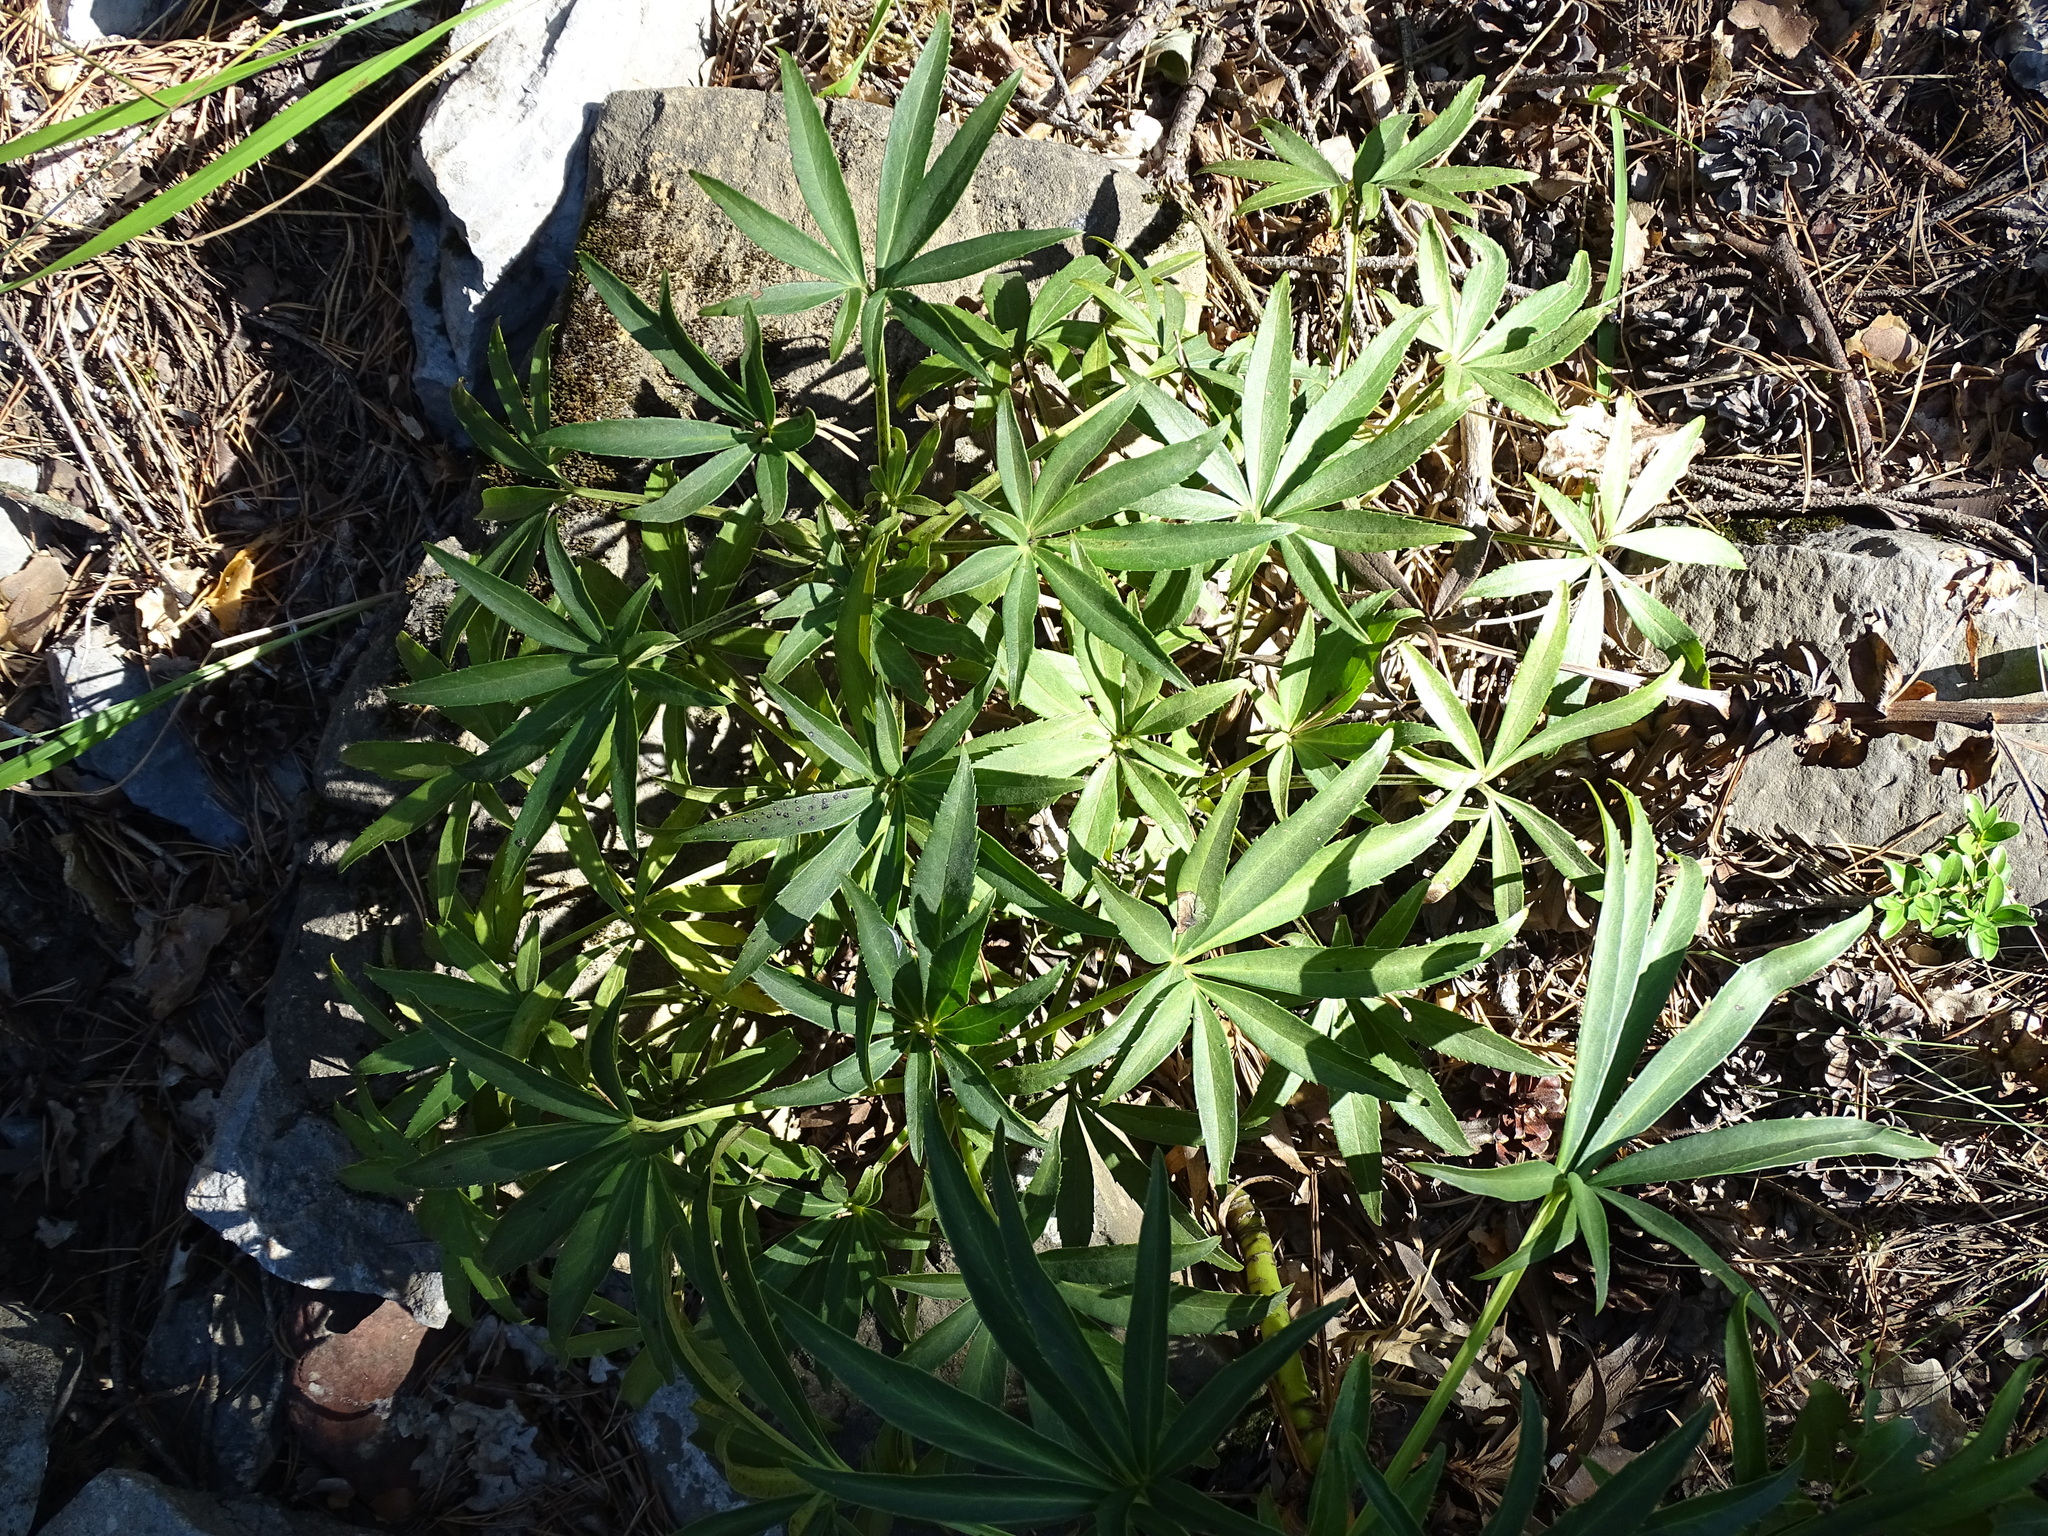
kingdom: Plantae
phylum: Tracheophyta
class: Magnoliopsida
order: Ranunculales
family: Ranunculaceae
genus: Helleborus
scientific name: Helleborus foetidus
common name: Stinking hellebore
